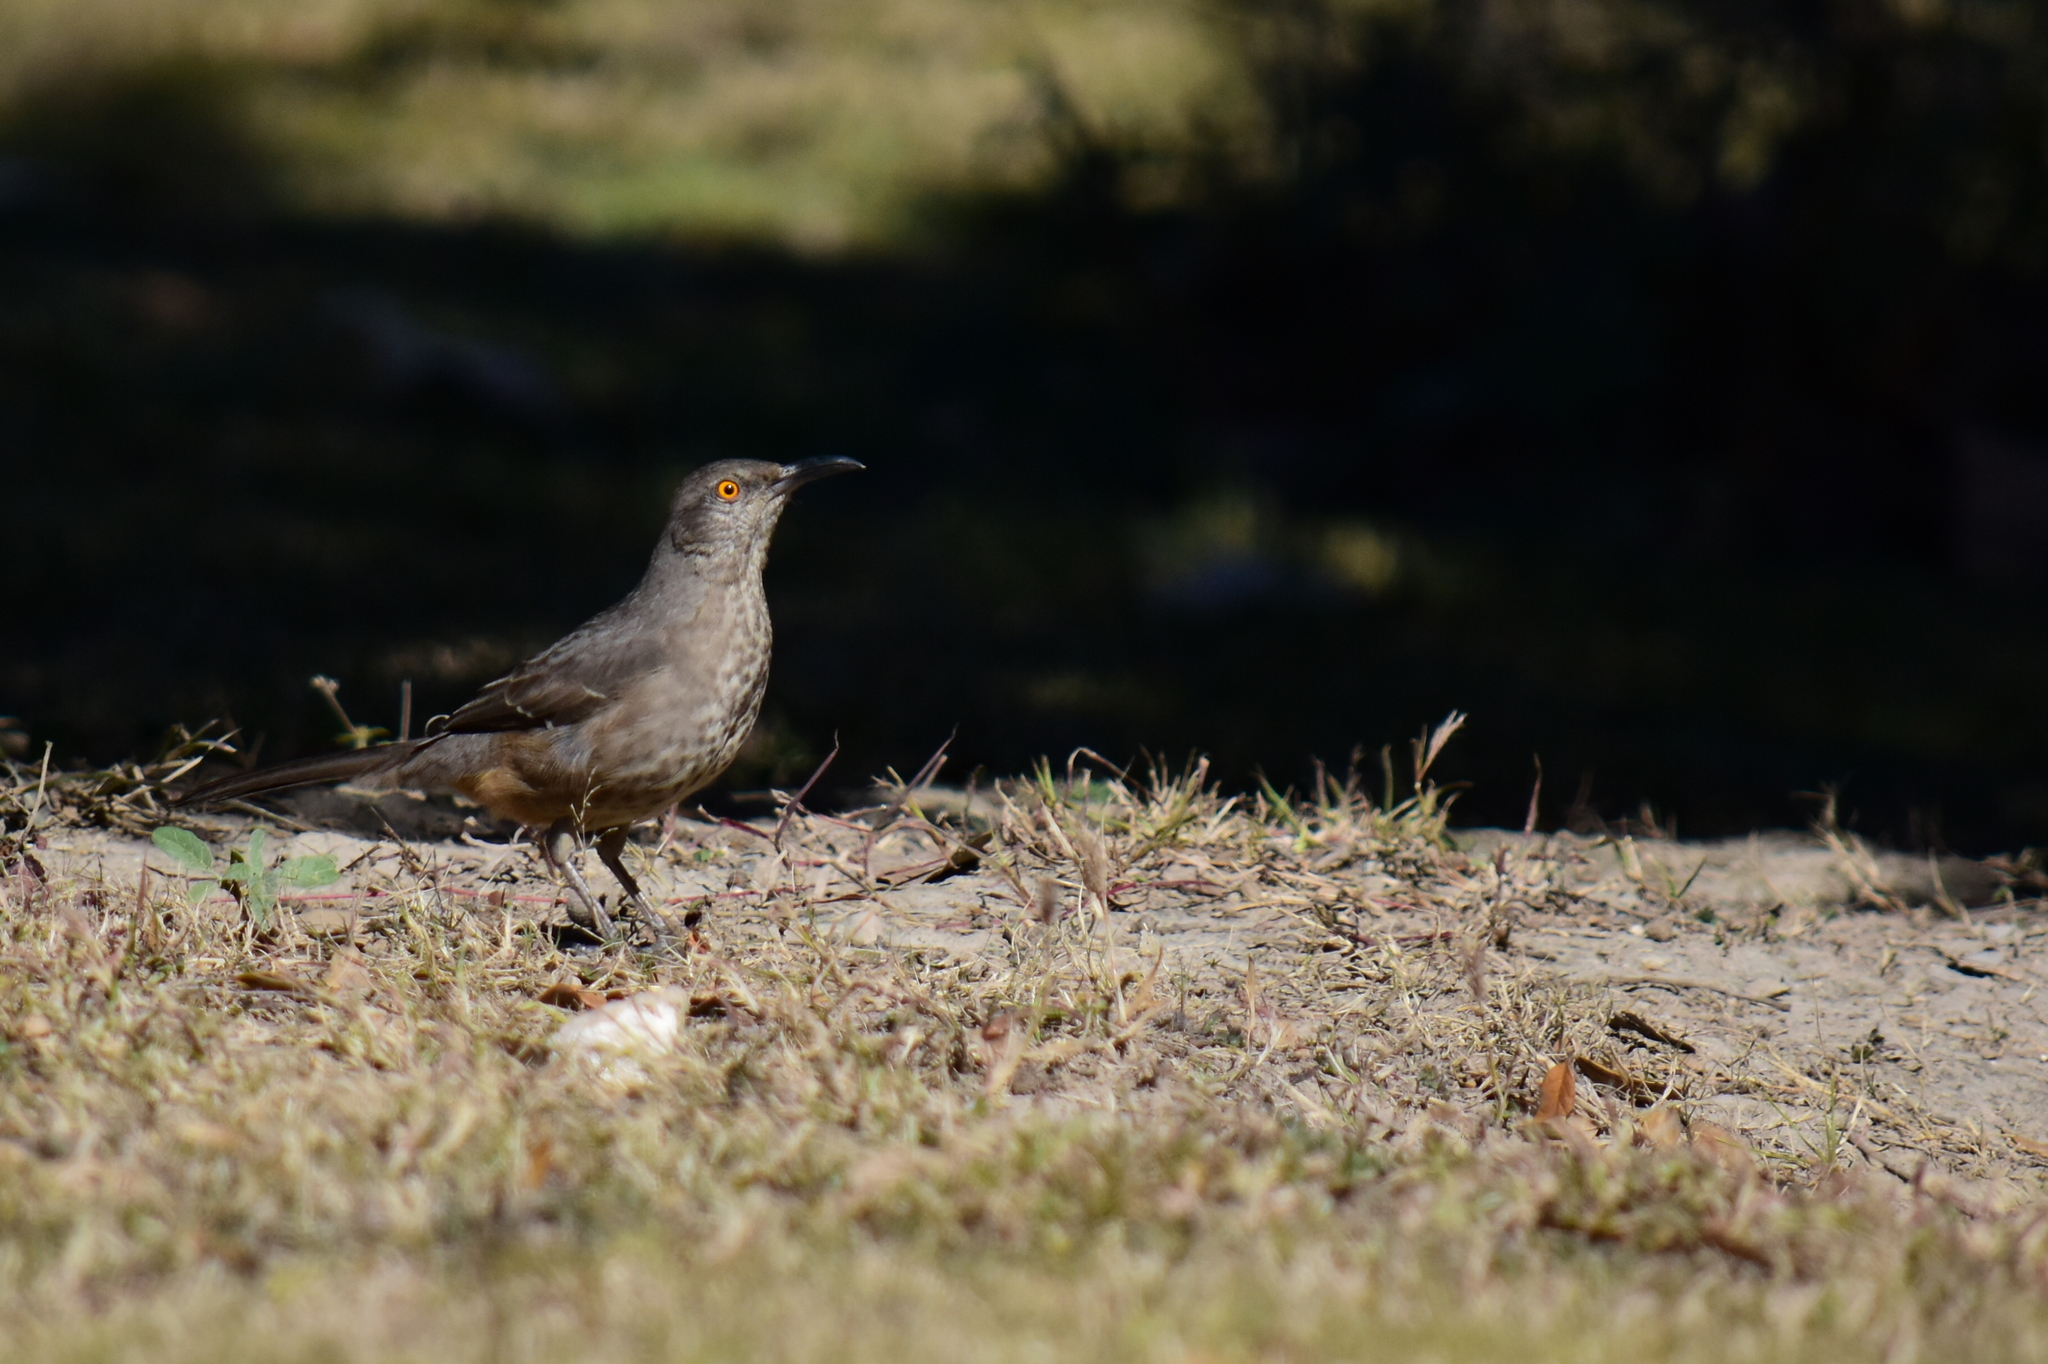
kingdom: Animalia
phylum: Chordata
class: Aves
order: Passeriformes
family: Mimidae
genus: Toxostoma
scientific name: Toxostoma curvirostre
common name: Curve-billed thrasher
